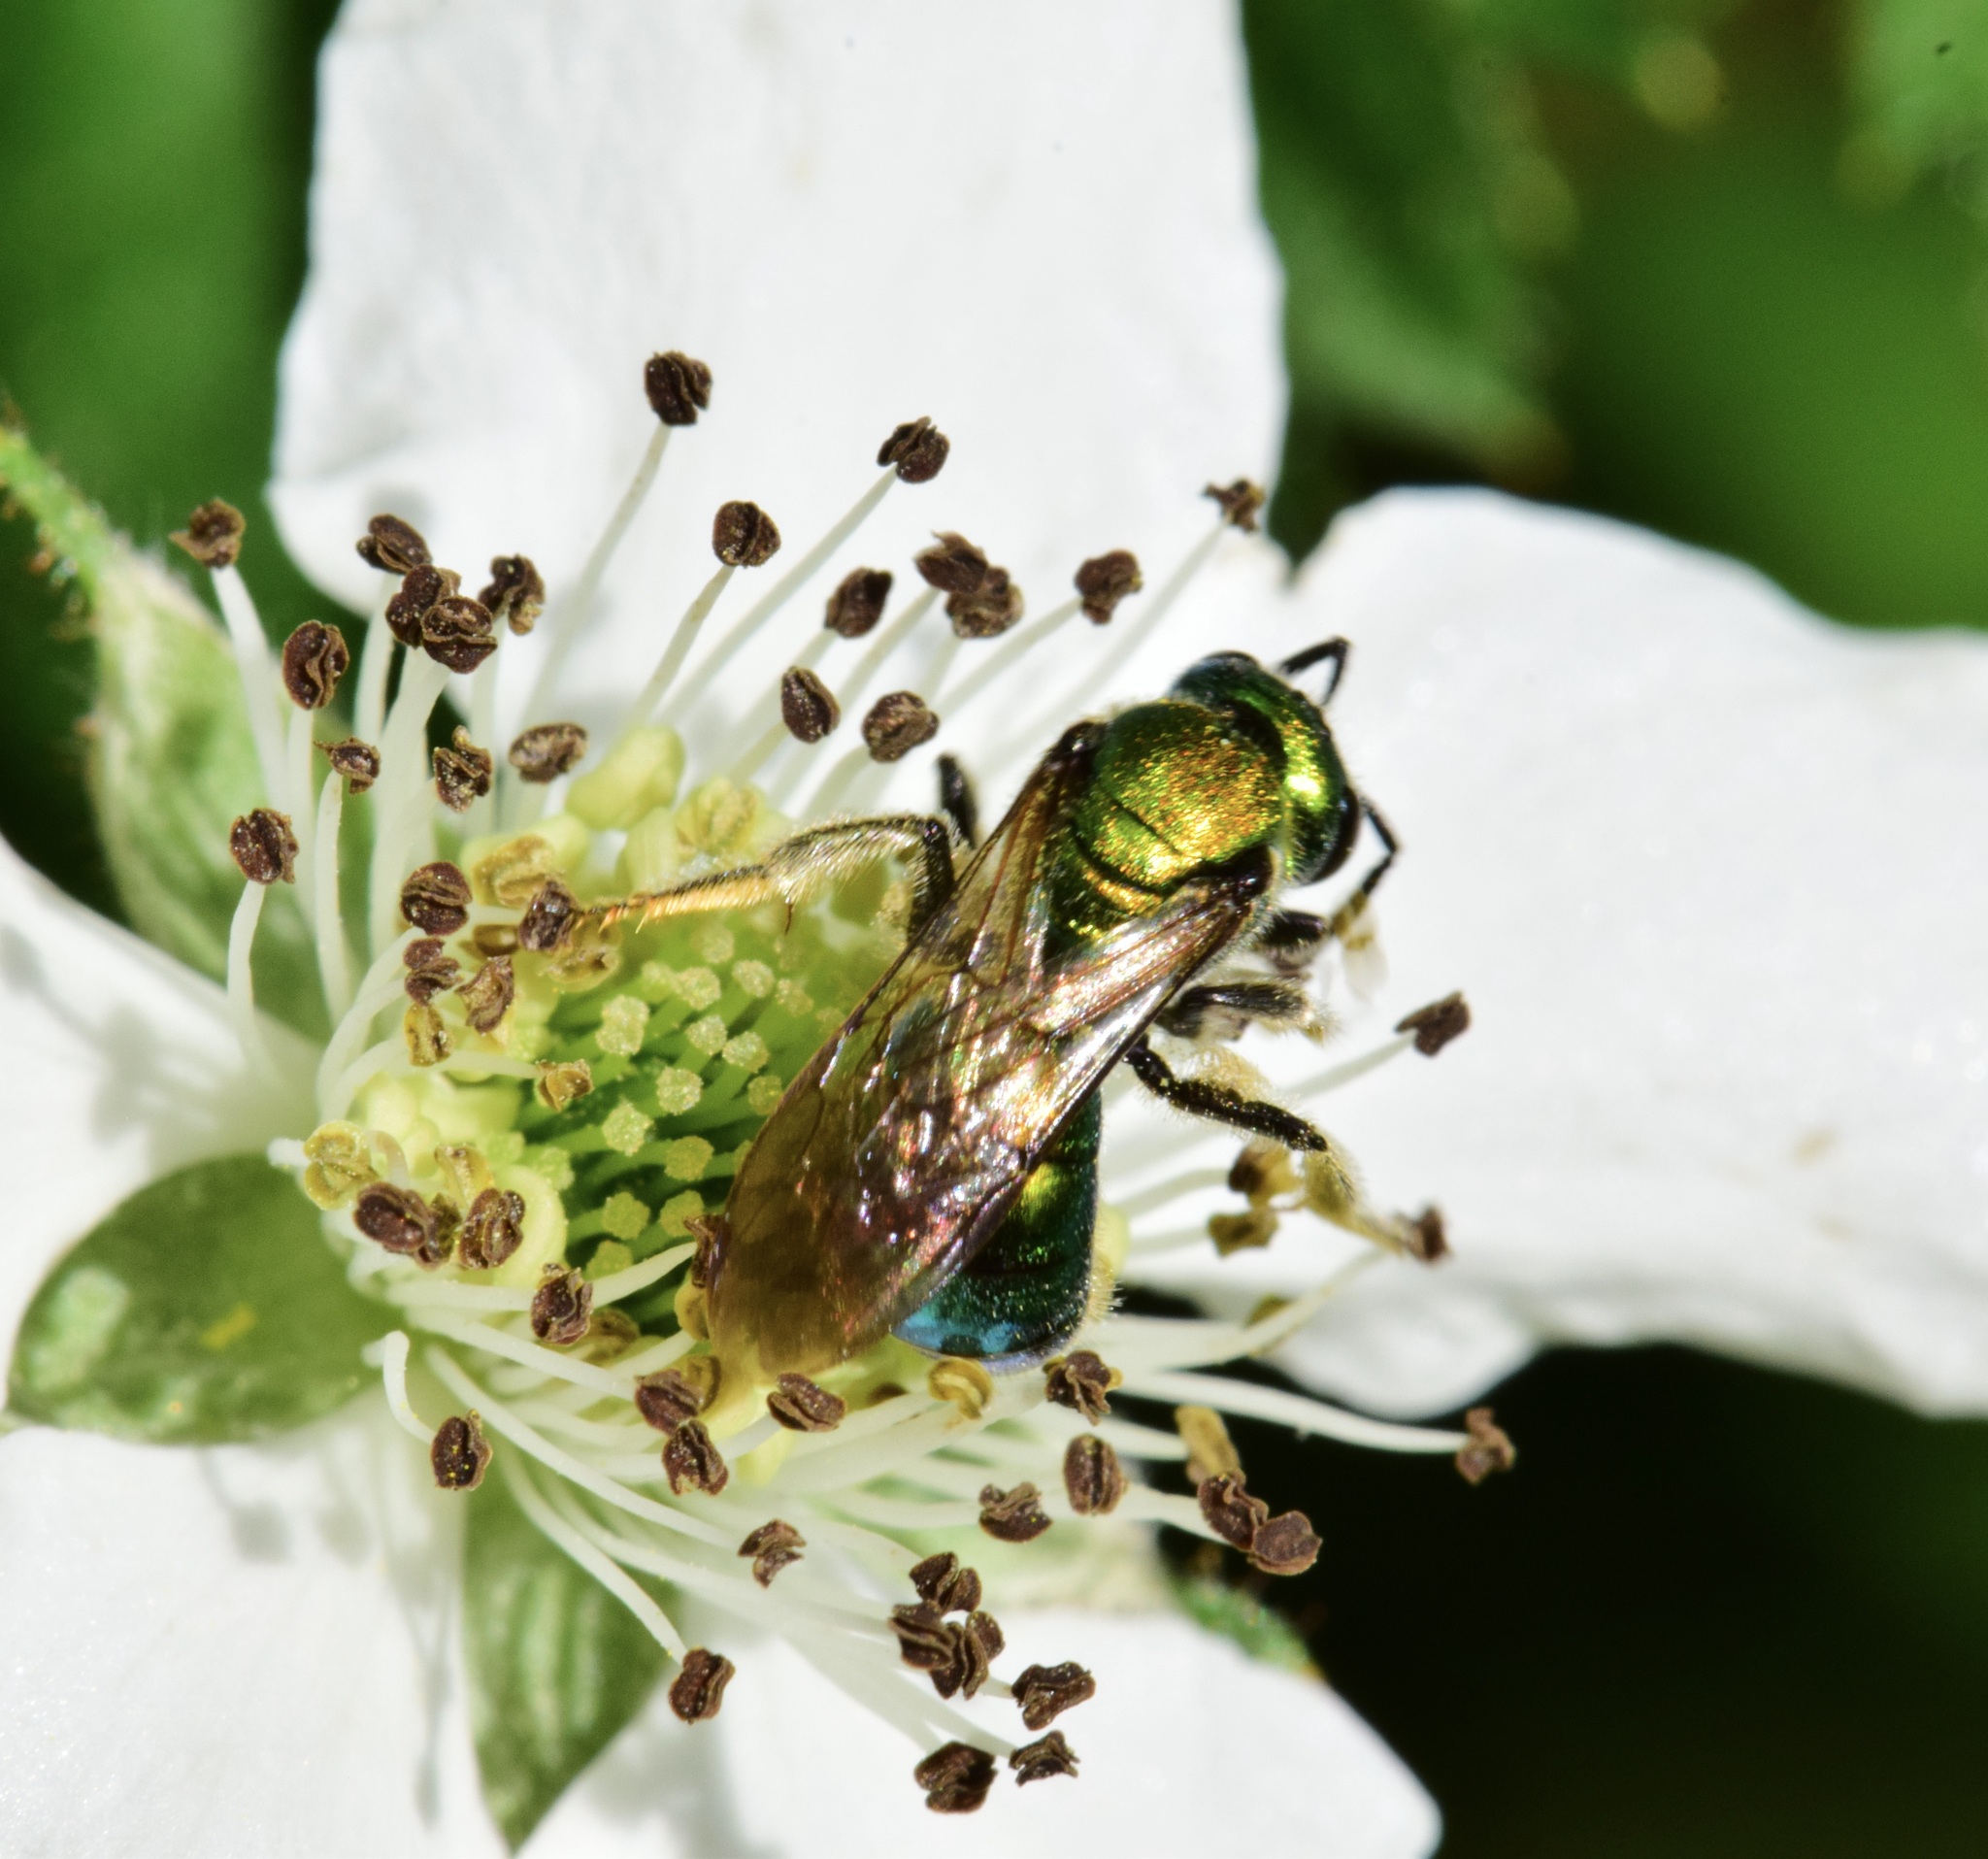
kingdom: Animalia
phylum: Arthropoda
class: Insecta
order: Hymenoptera
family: Halictidae
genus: Augochlora
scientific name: Augochlora pura
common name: Pure green sweat bee
